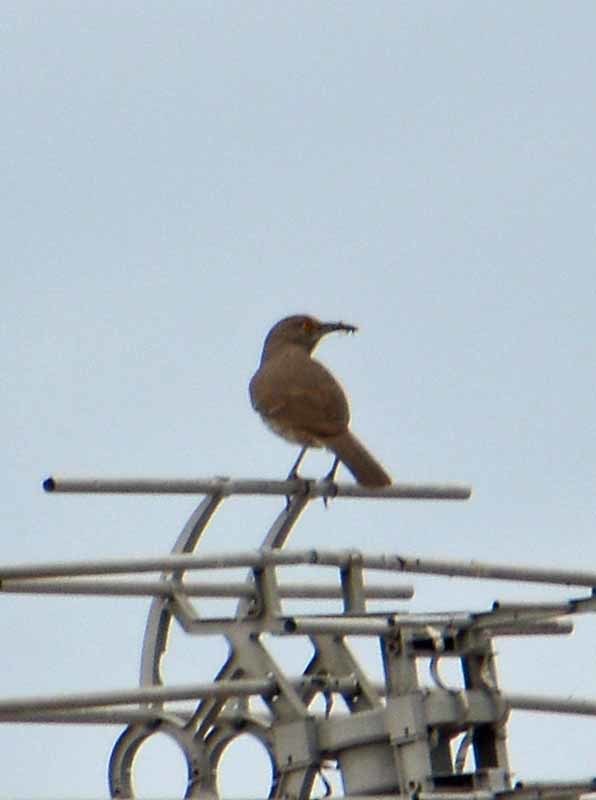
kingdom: Animalia
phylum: Chordata
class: Aves
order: Passeriformes
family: Mimidae
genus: Toxostoma
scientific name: Toxostoma curvirostre
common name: Curve-billed thrasher
